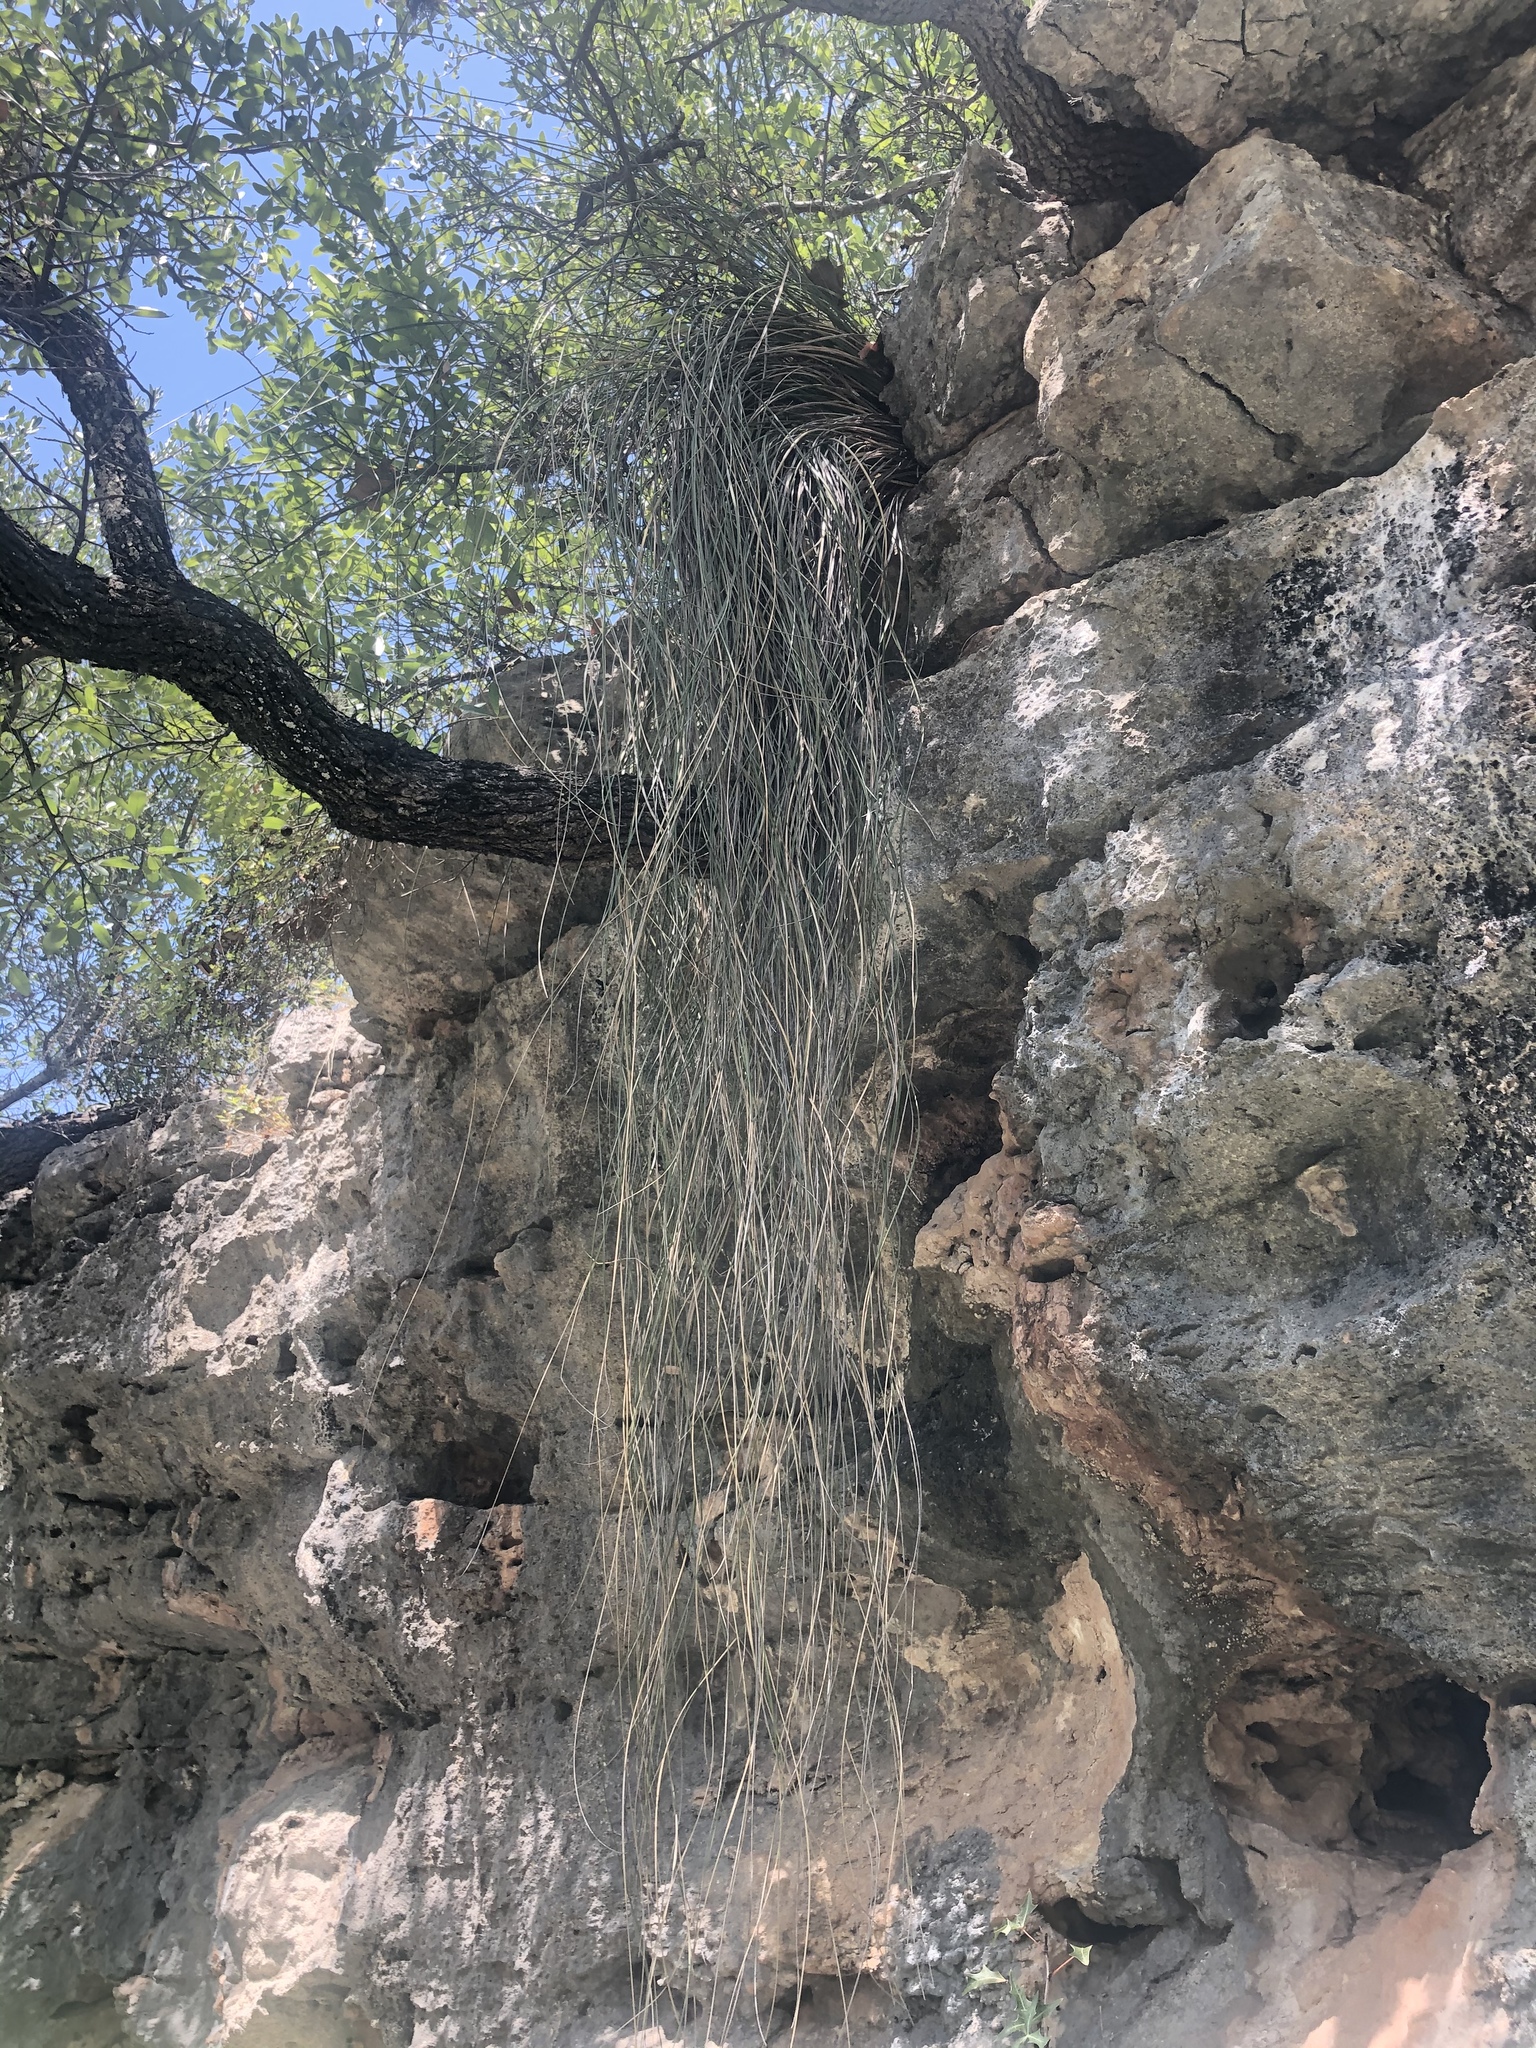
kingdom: Plantae
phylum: Tracheophyta
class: Liliopsida
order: Asparagales
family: Asparagaceae
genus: Nolina
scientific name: Nolina texana
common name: Texas sacahuiste
